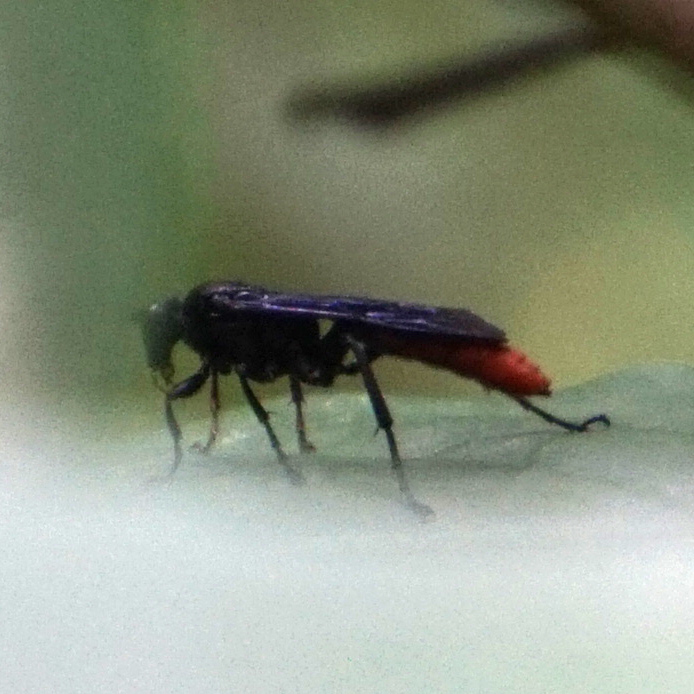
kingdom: Animalia
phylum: Arthropoda
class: Insecta
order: Hymenoptera
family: Ichneumonidae
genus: Protichneumon
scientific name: Protichneumon grandis
